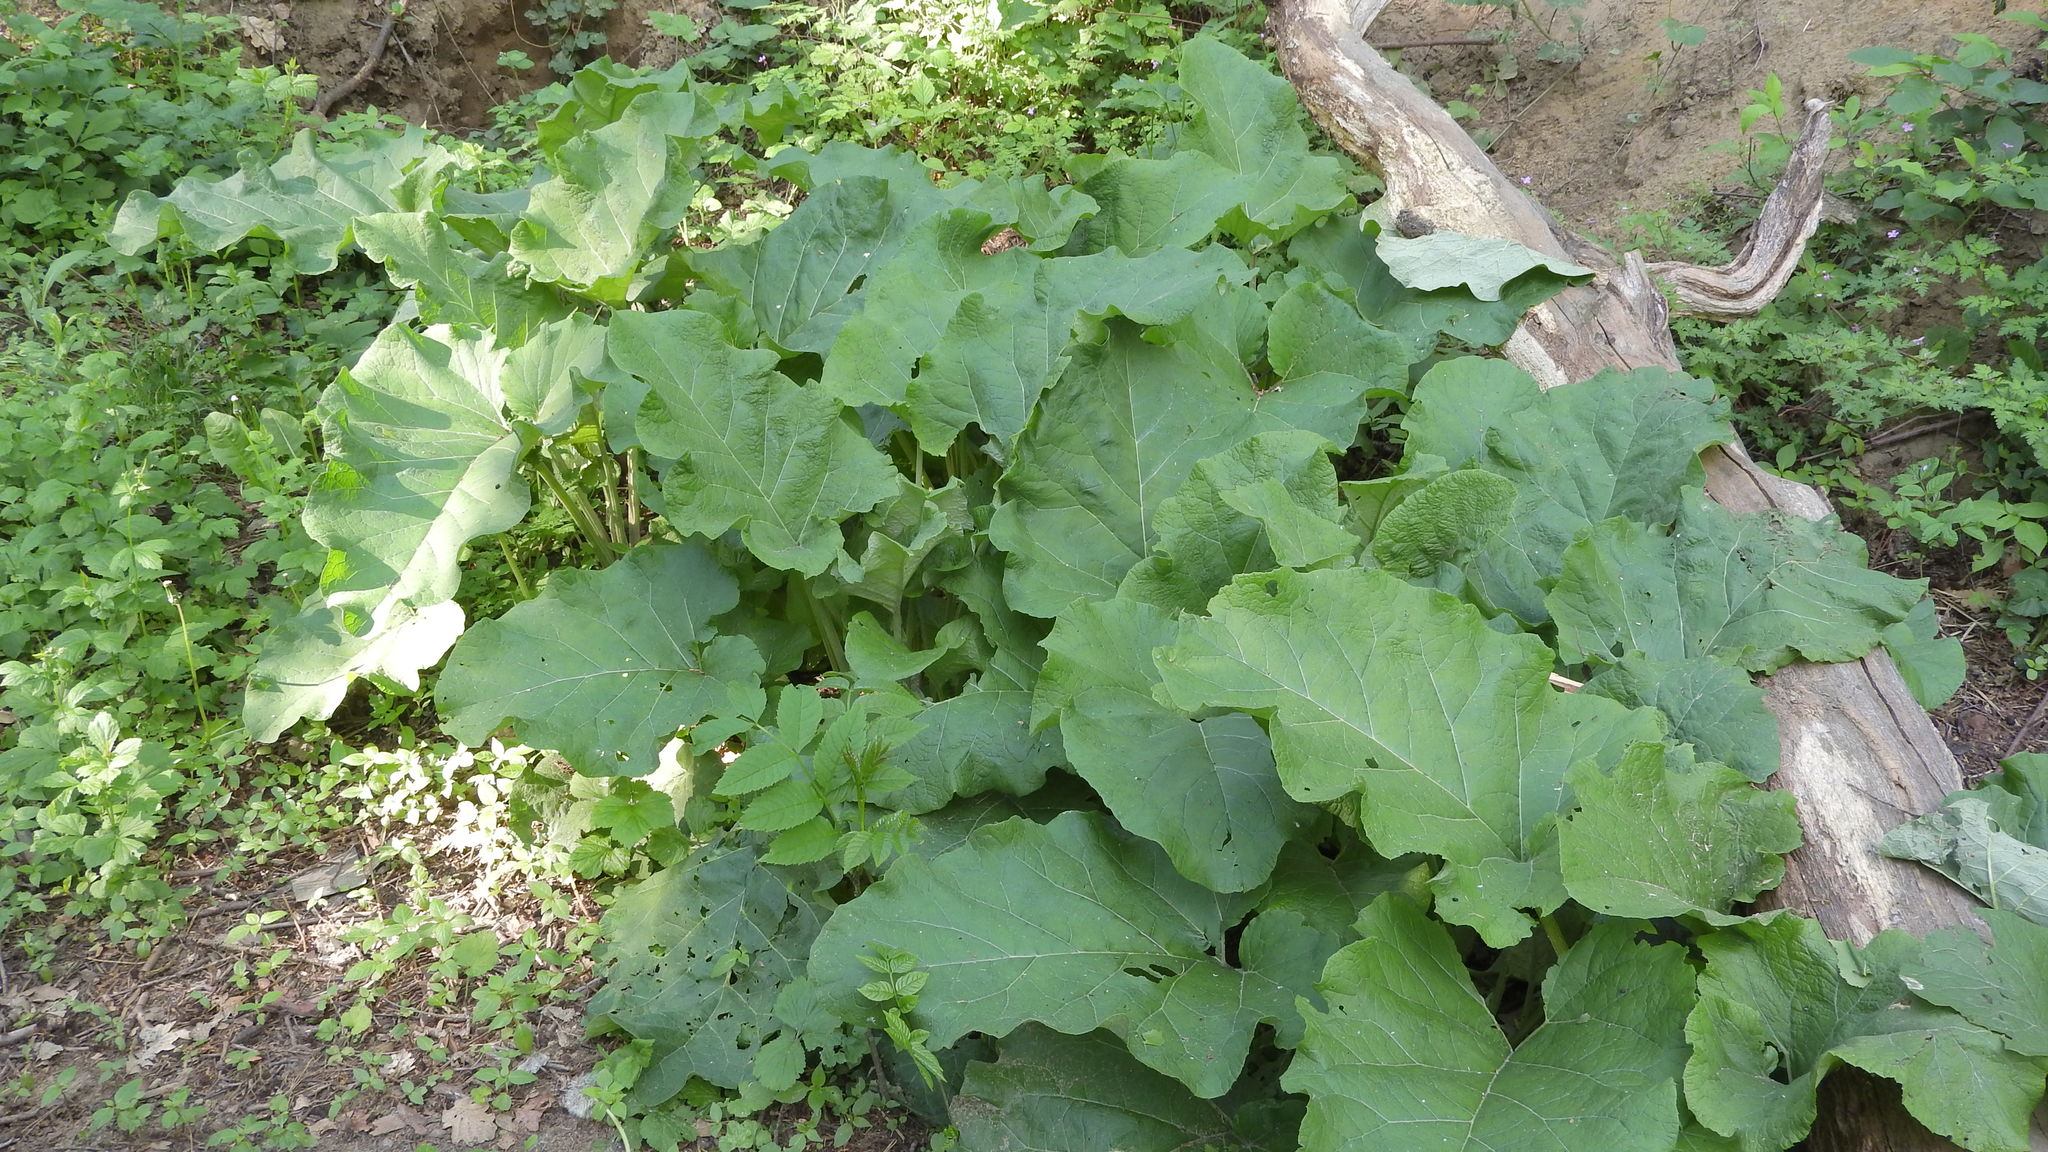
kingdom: Plantae
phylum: Tracheophyta
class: Magnoliopsida
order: Asterales
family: Asteraceae
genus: Arctium
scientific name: Arctium
